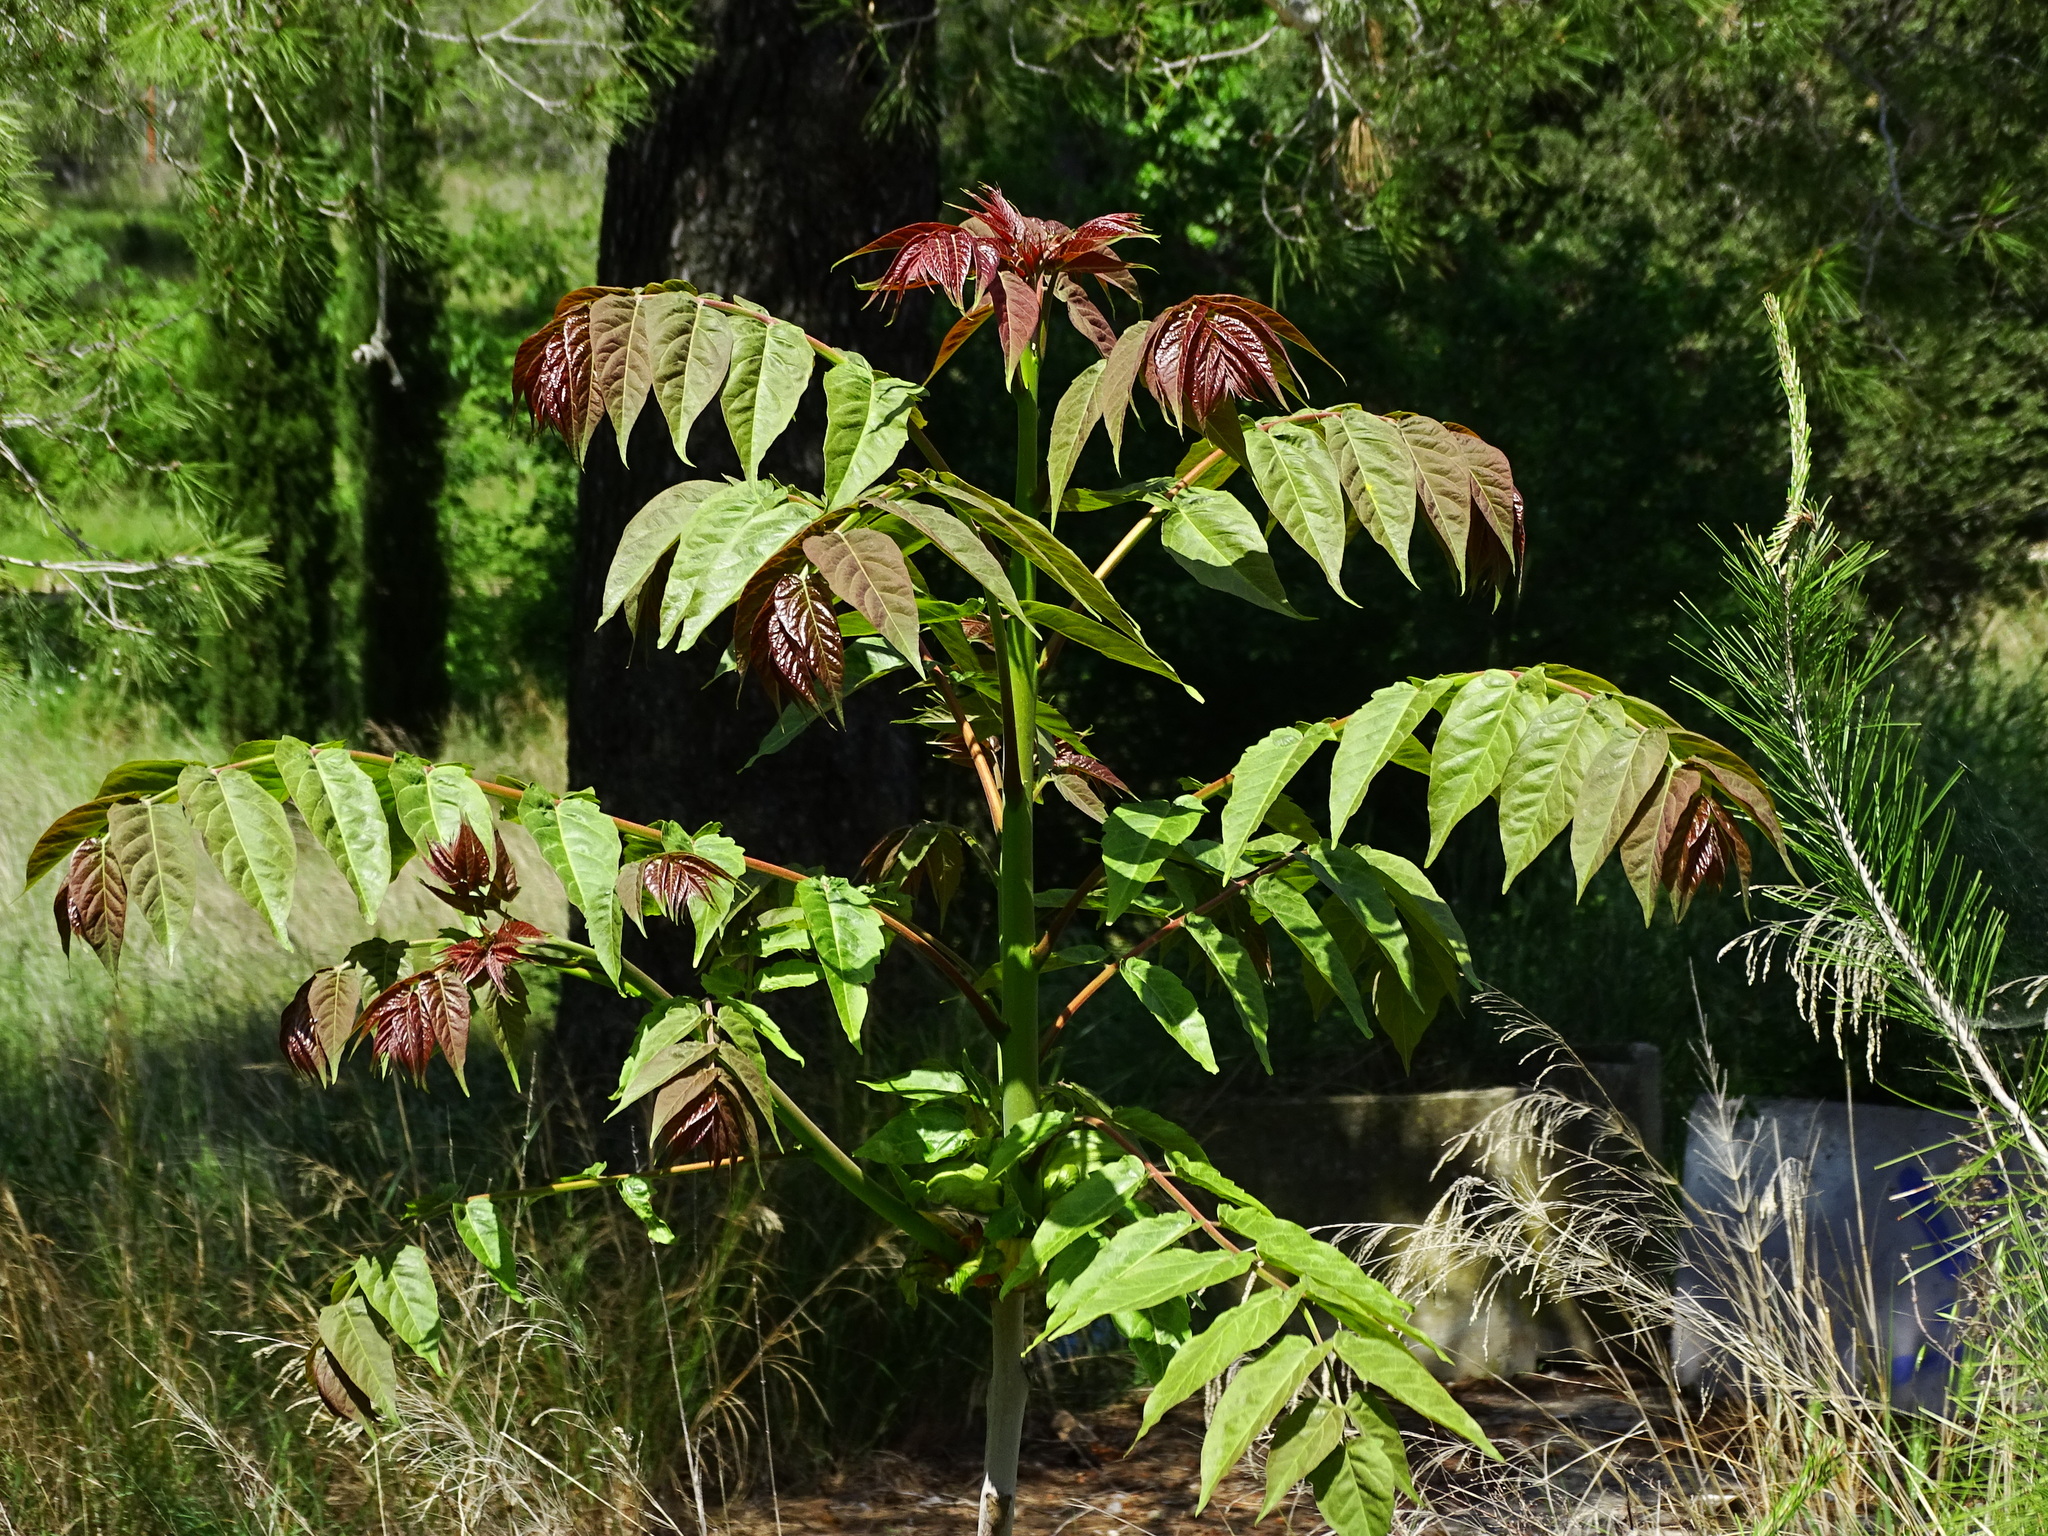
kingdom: Plantae
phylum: Tracheophyta
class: Magnoliopsida
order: Sapindales
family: Simaroubaceae
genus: Ailanthus
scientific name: Ailanthus altissima
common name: Tree-of-heaven
